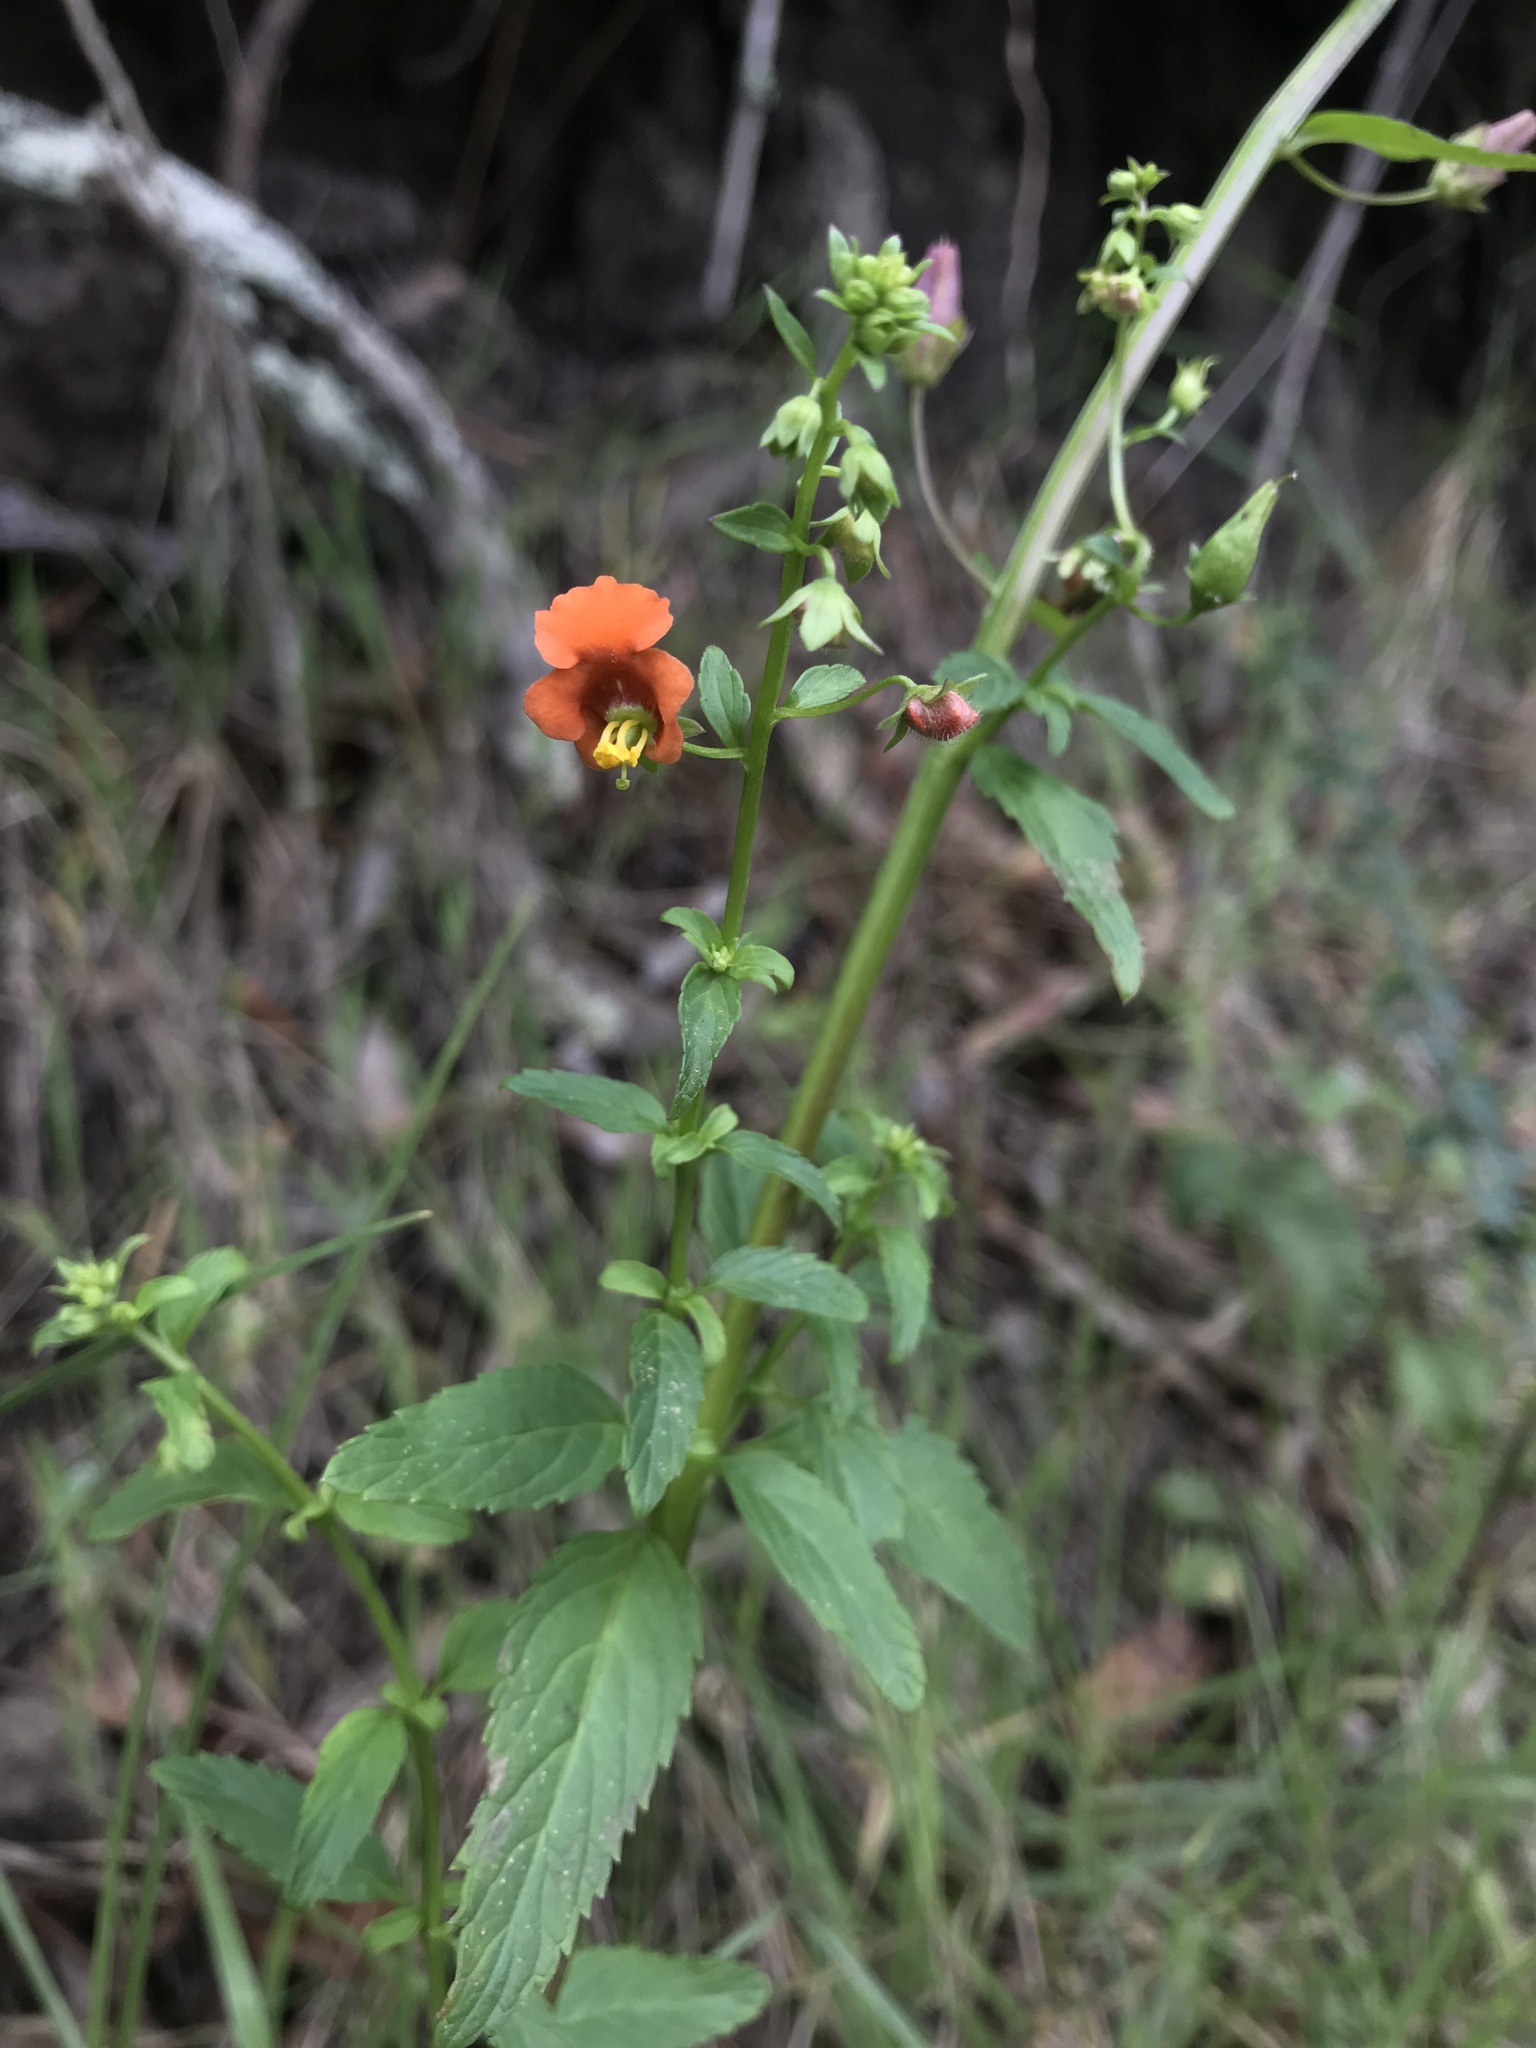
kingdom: Plantae
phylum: Tracheophyta
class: Magnoliopsida
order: Lamiales
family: Scrophulariaceae
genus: Alonsoa
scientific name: Alonsoa meridionalis
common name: Maskflower
